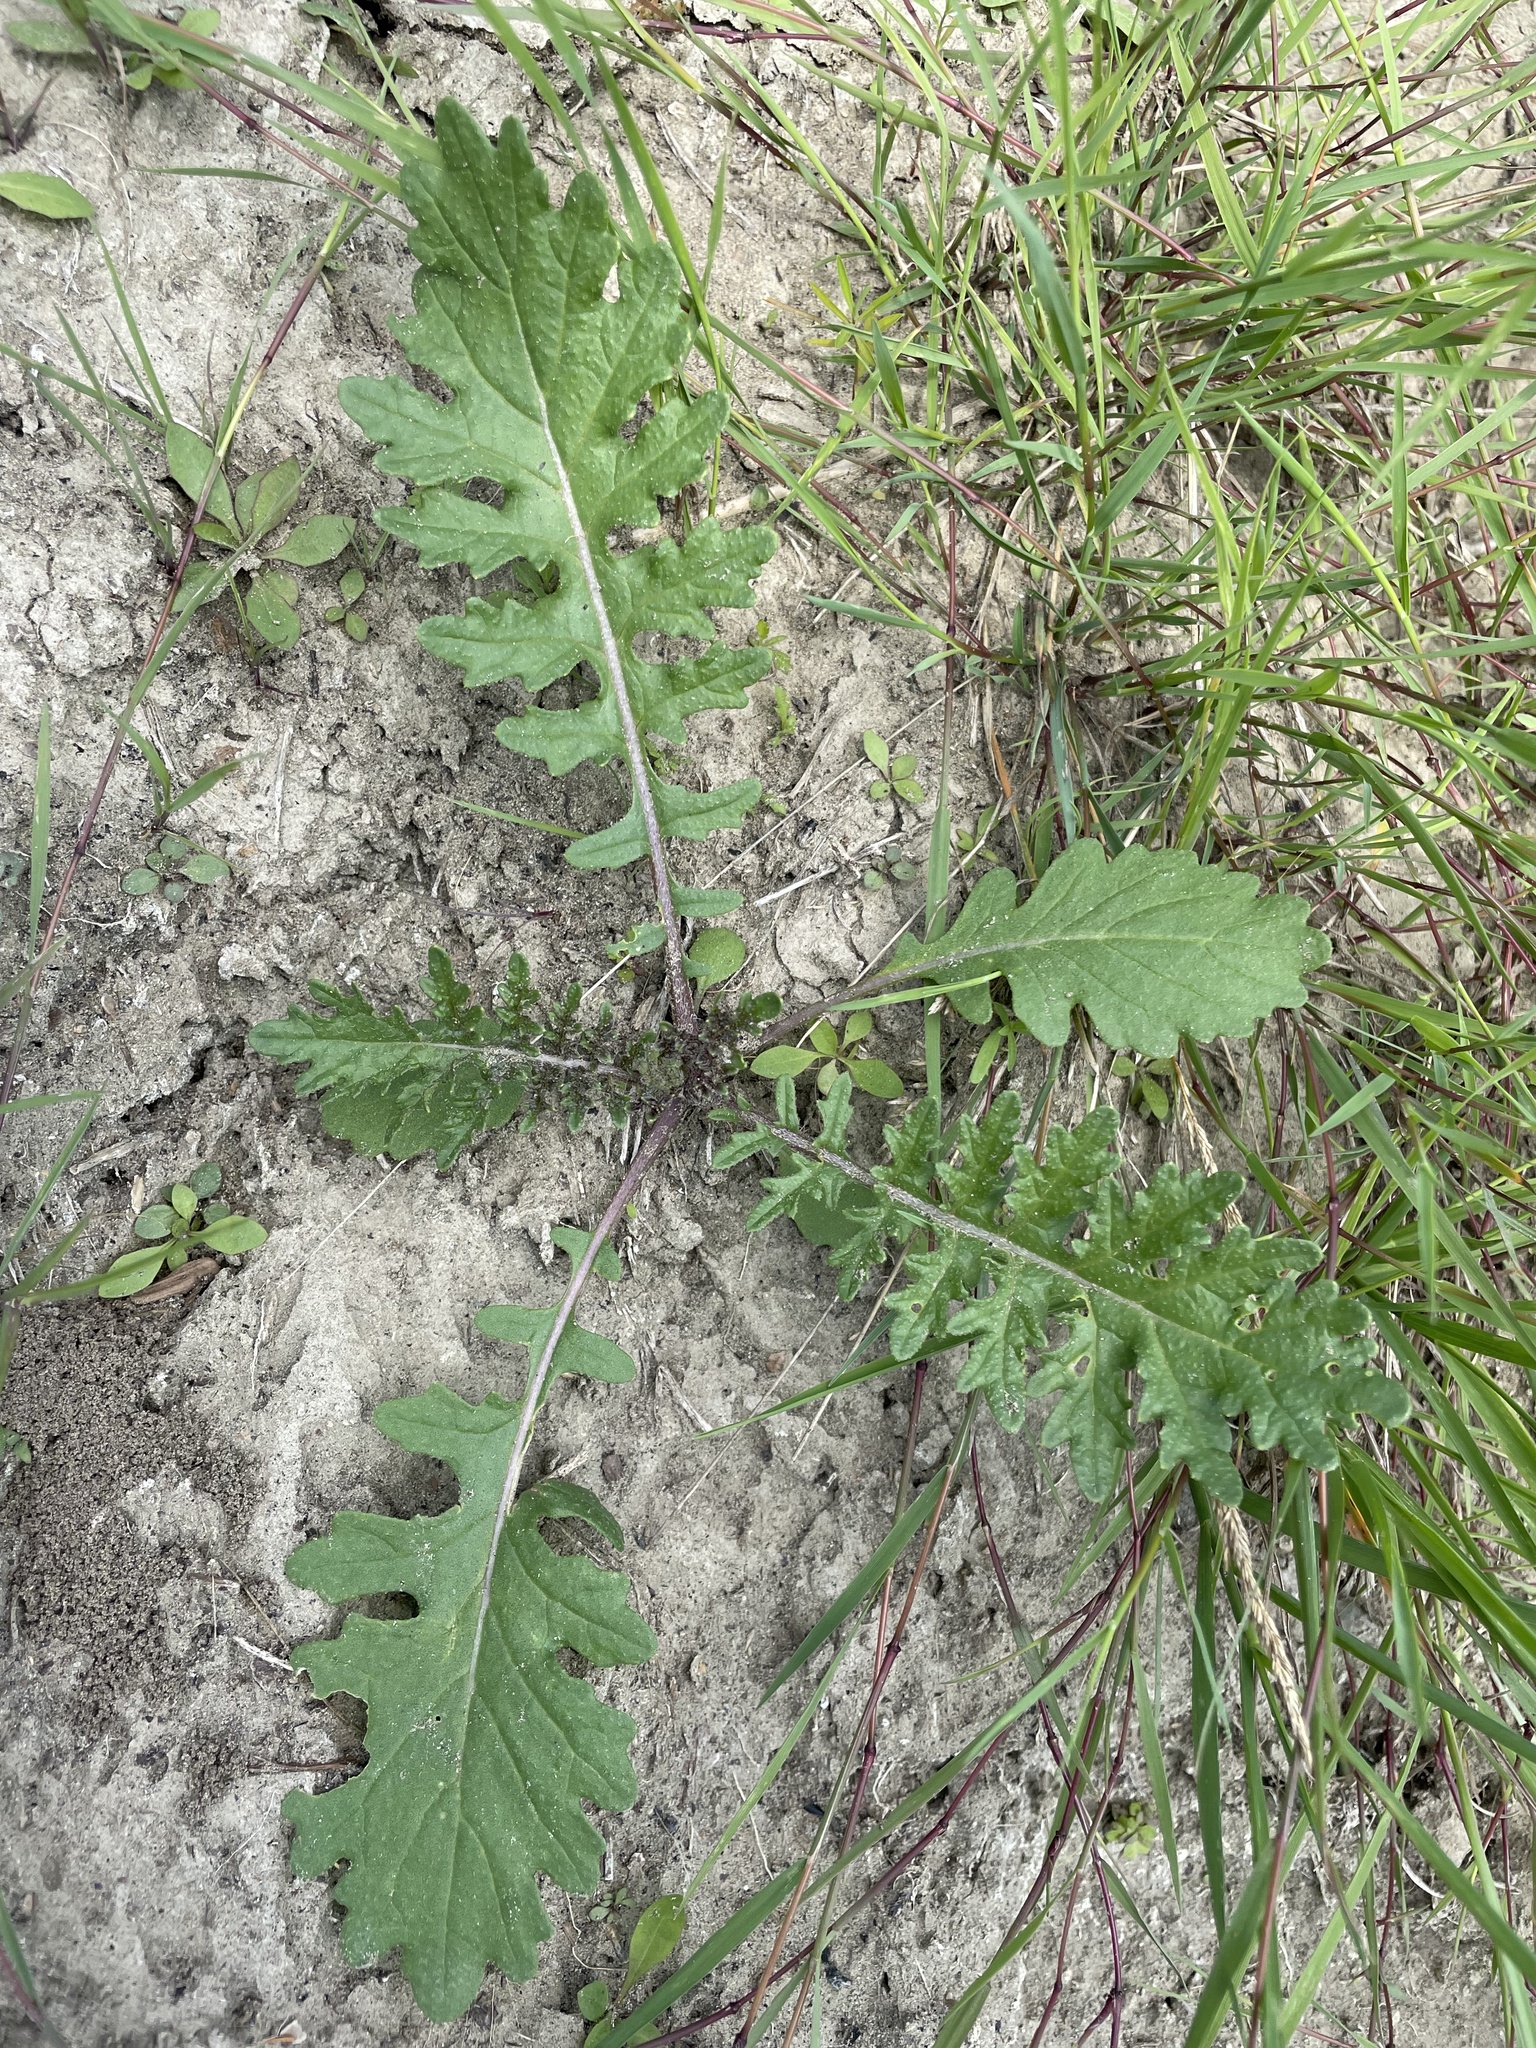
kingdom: Plantae
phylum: Tracheophyta
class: Magnoliopsida
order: Brassicales
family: Brassicaceae
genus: Erucastrum
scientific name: Erucastrum gallicum
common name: Hairy rocket
